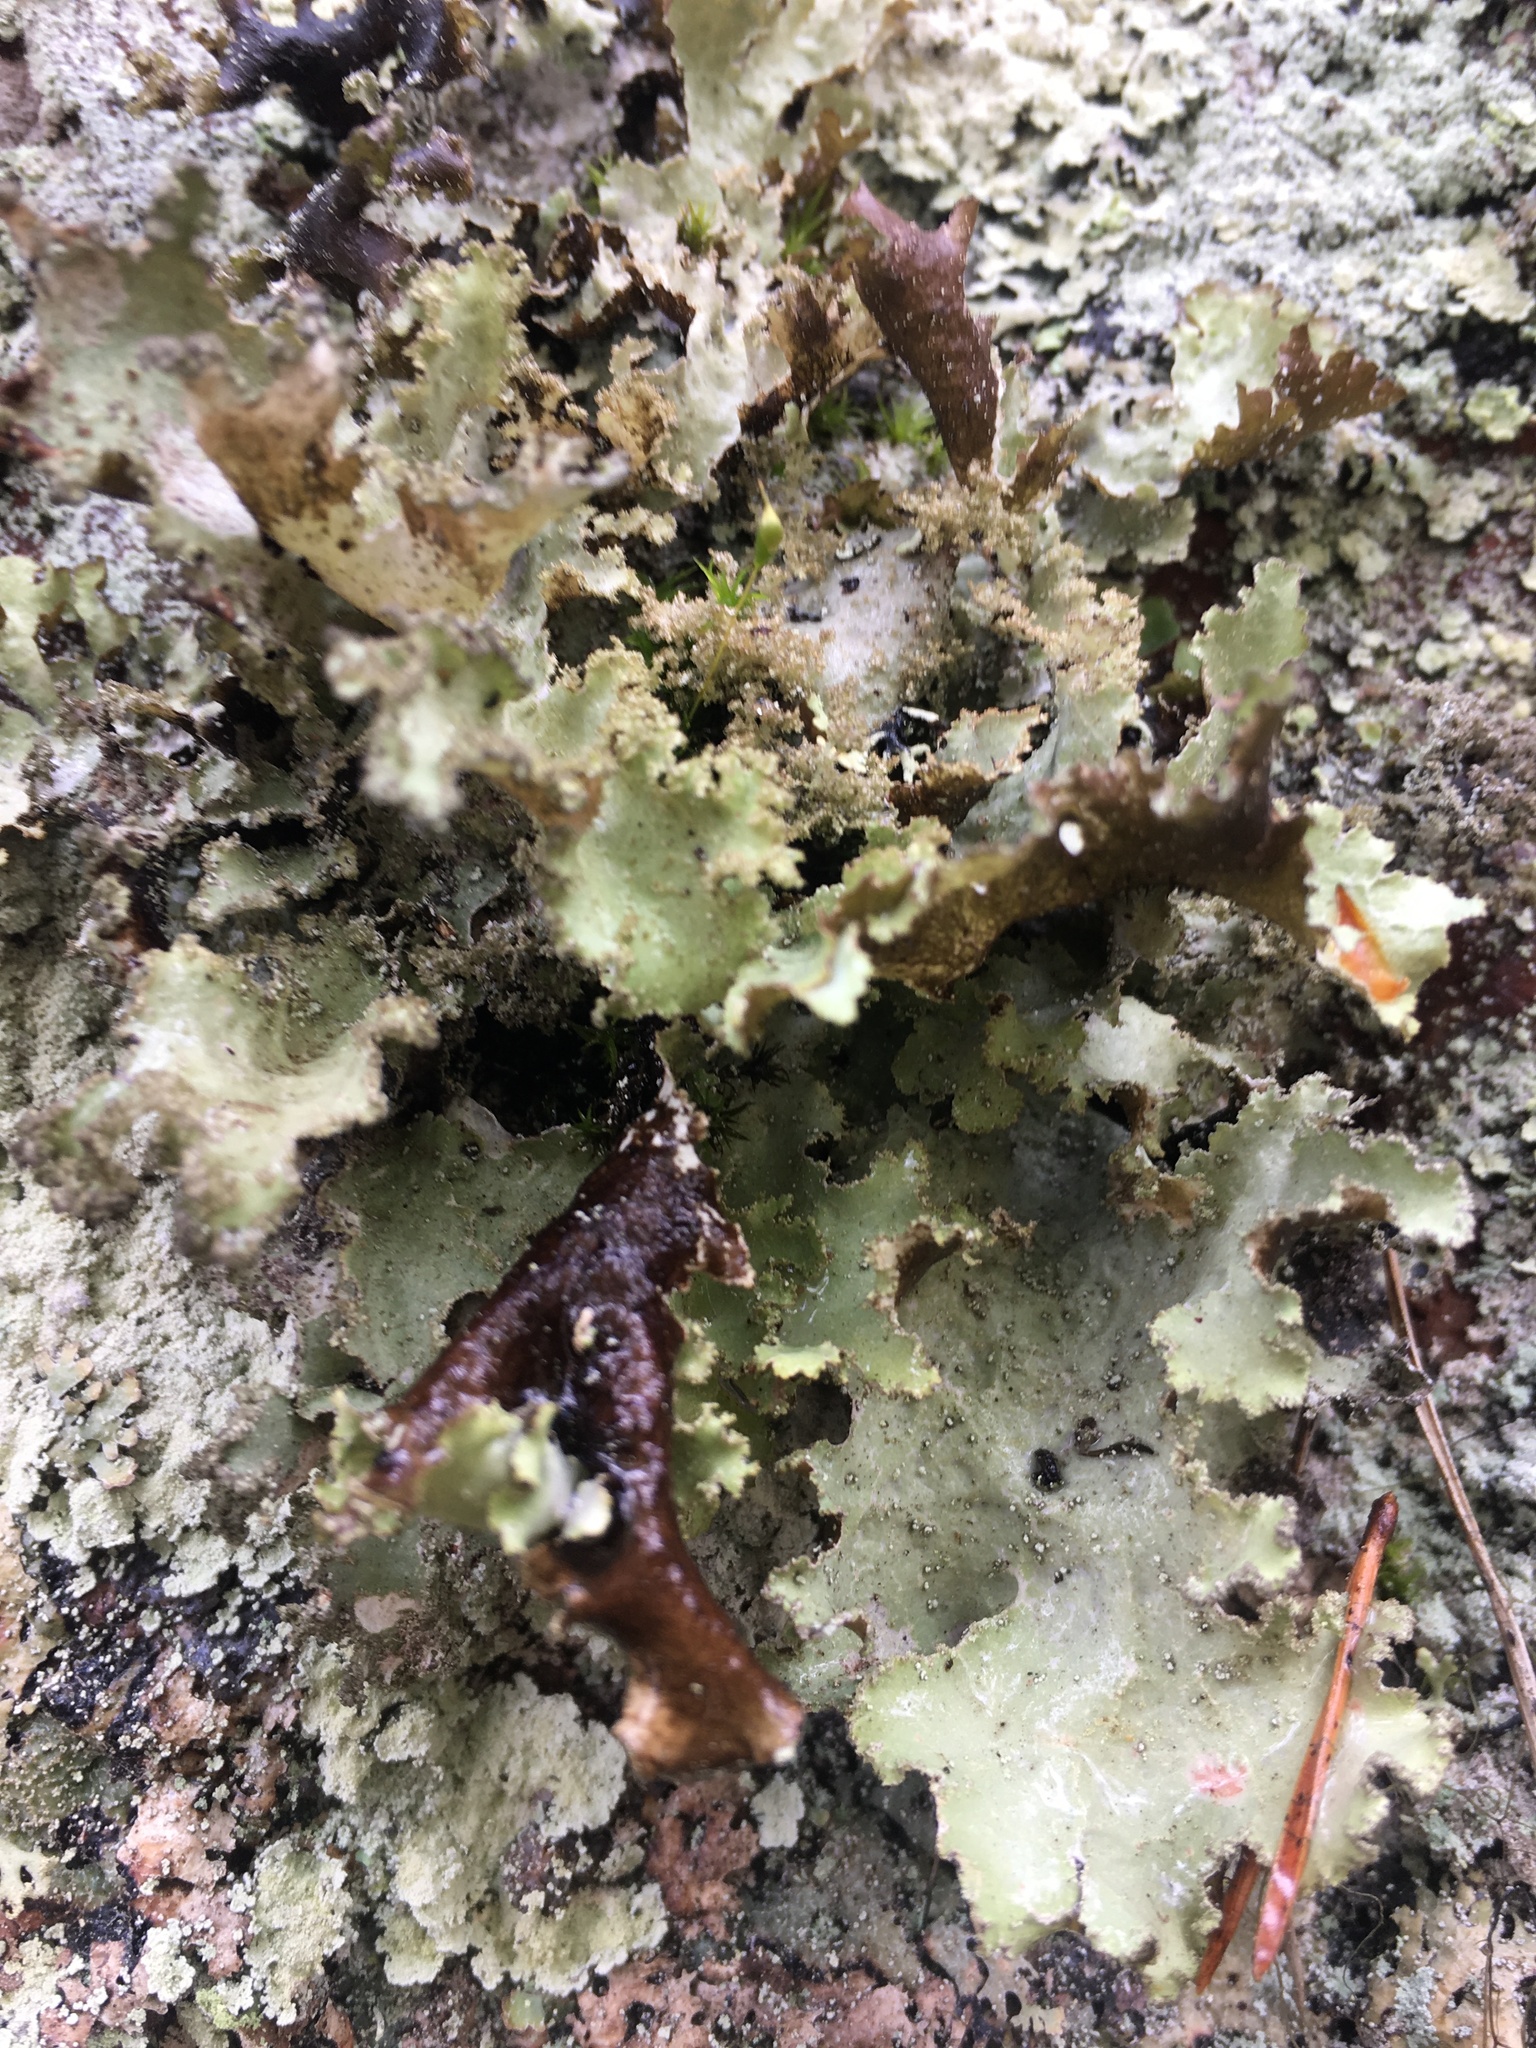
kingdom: Fungi
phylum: Ascomycota
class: Lecanoromycetes
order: Lecanorales
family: Parmeliaceae
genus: Platismatia
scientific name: Platismatia glauca
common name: Varied rag lichen
